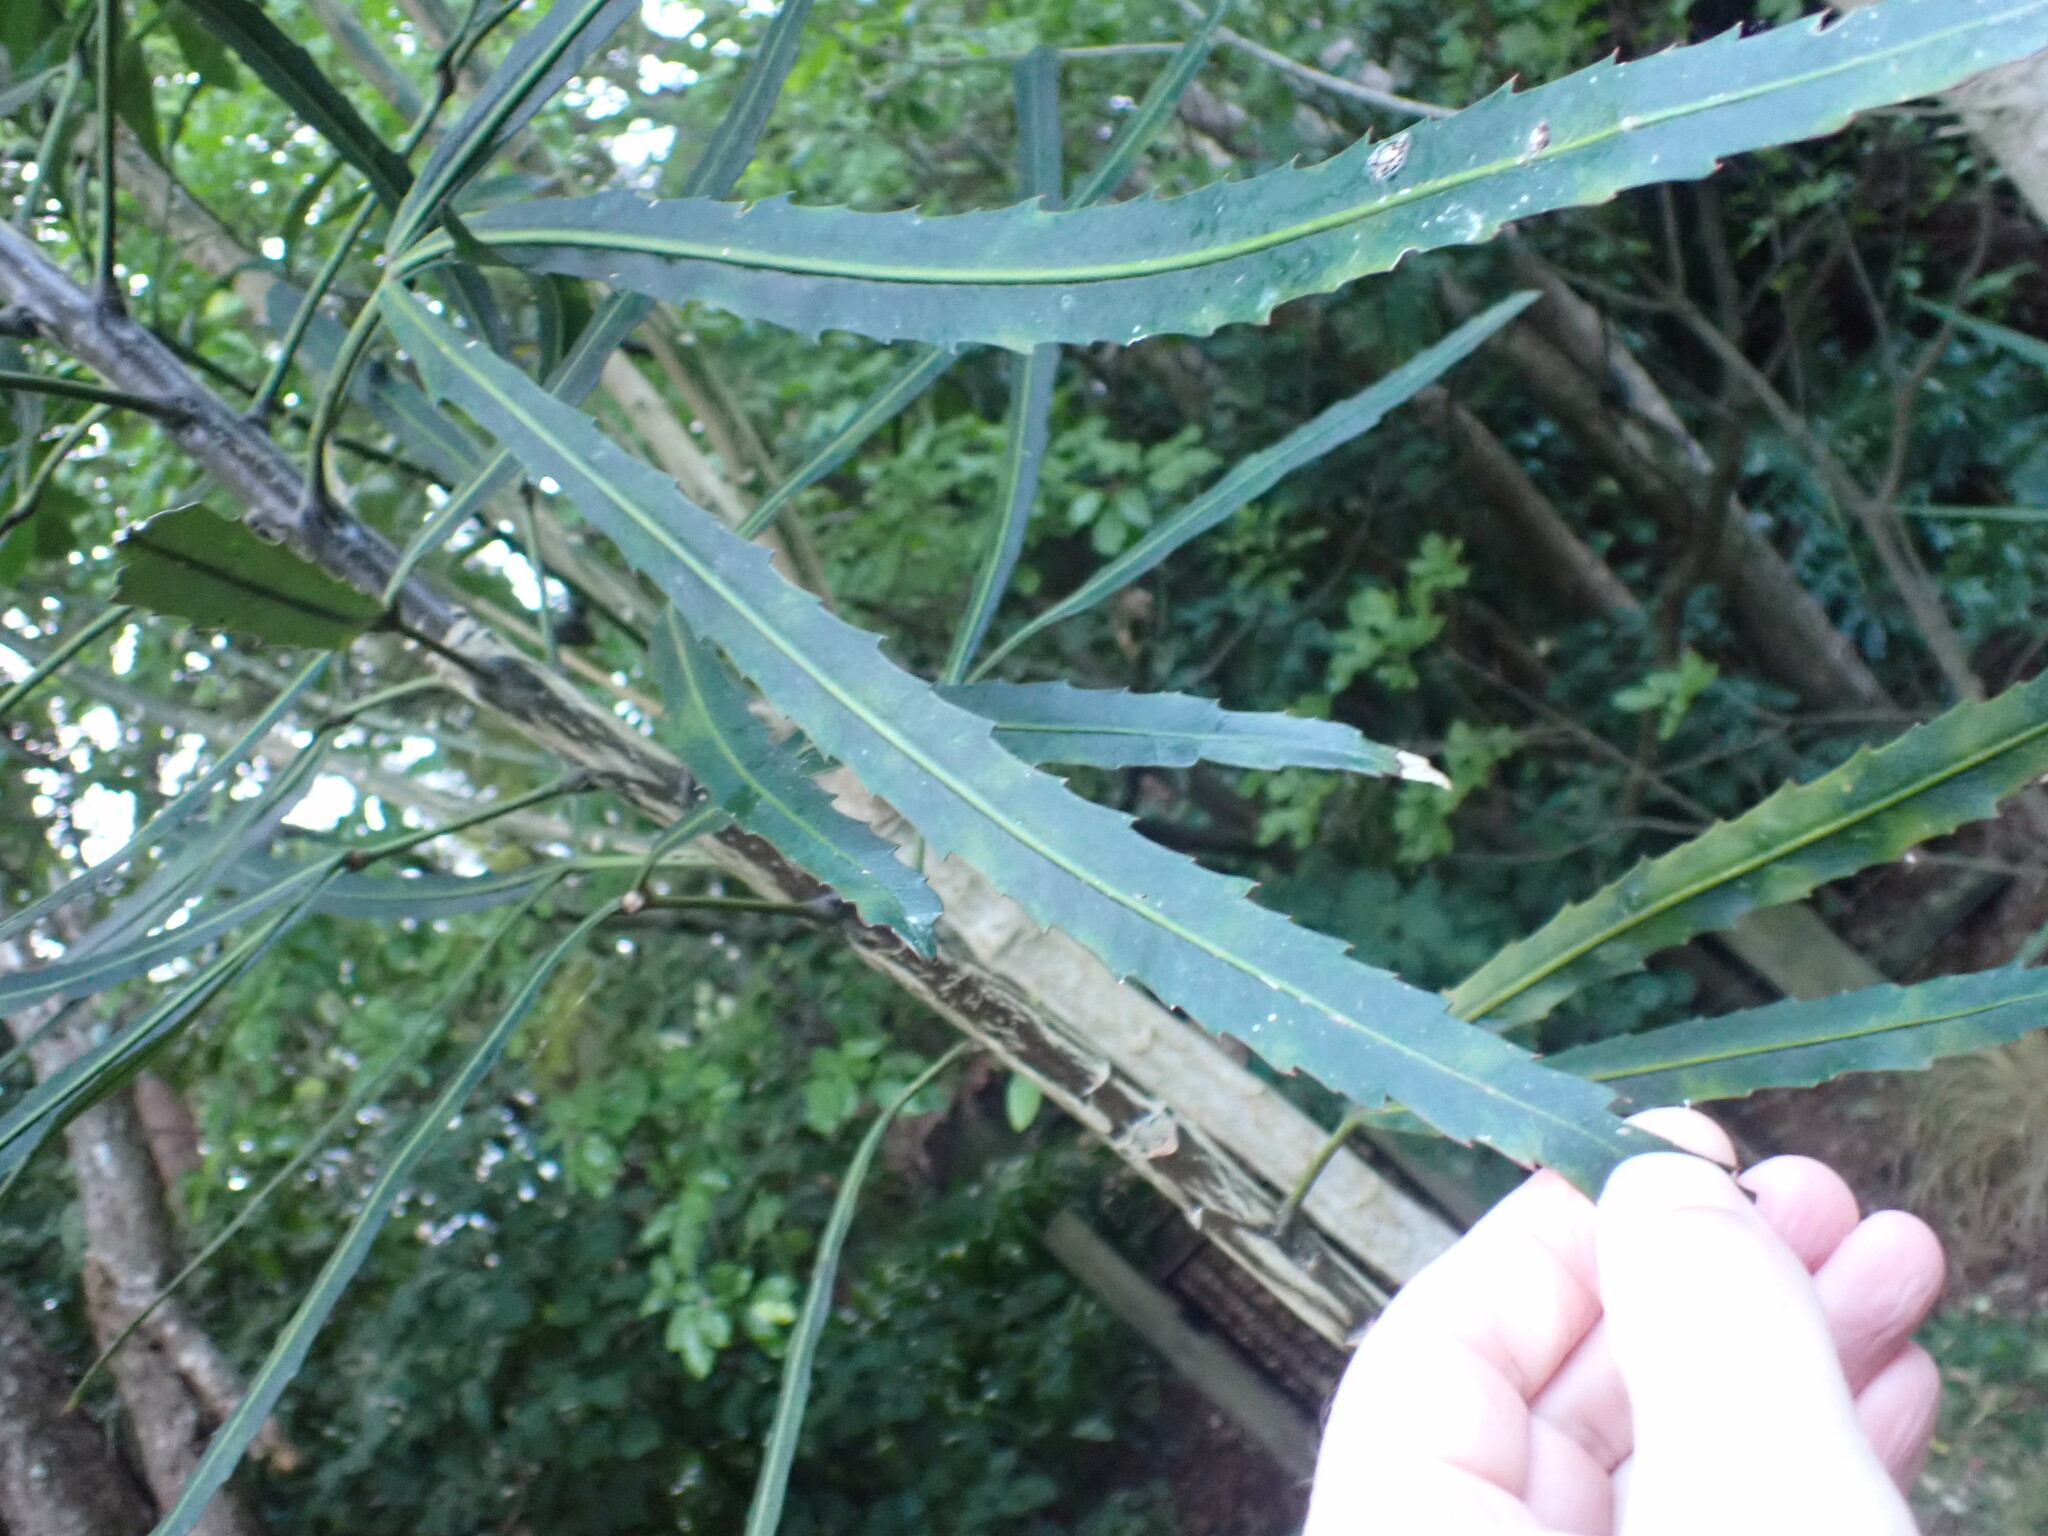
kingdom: Plantae
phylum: Tracheophyta
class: Magnoliopsida
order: Apiales
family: Araliaceae
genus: Pseudopanax
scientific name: Pseudopanax
